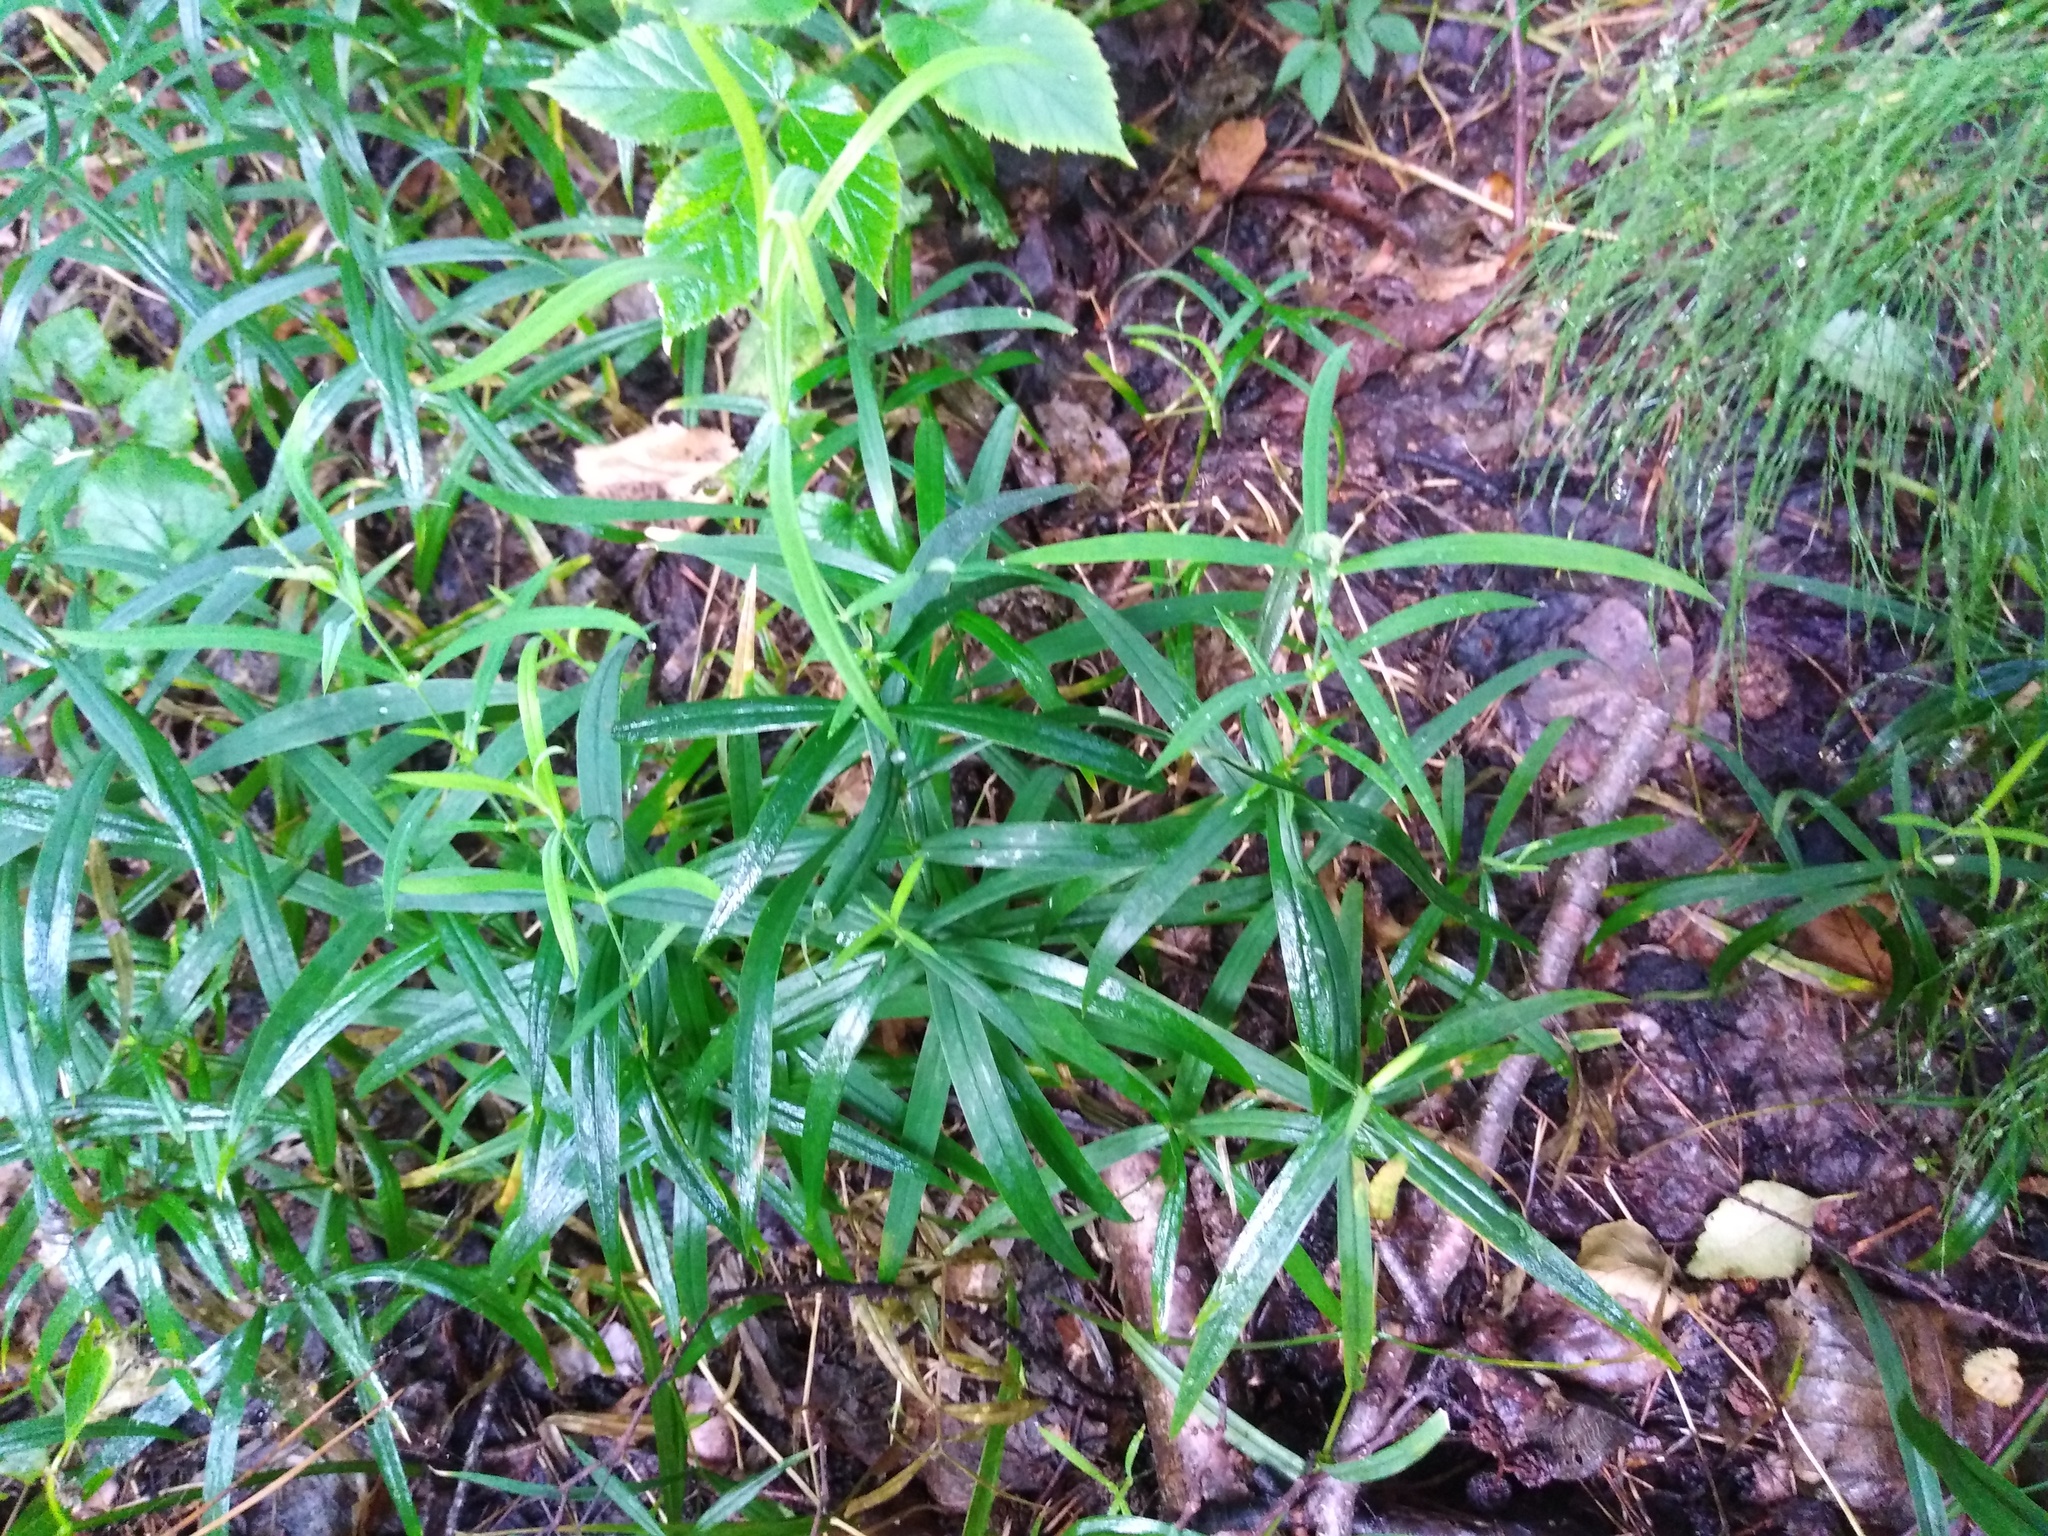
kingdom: Plantae
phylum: Tracheophyta
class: Magnoliopsida
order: Caryophyllales
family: Caryophyllaceae
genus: Rabelera
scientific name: Rabelera holostea
